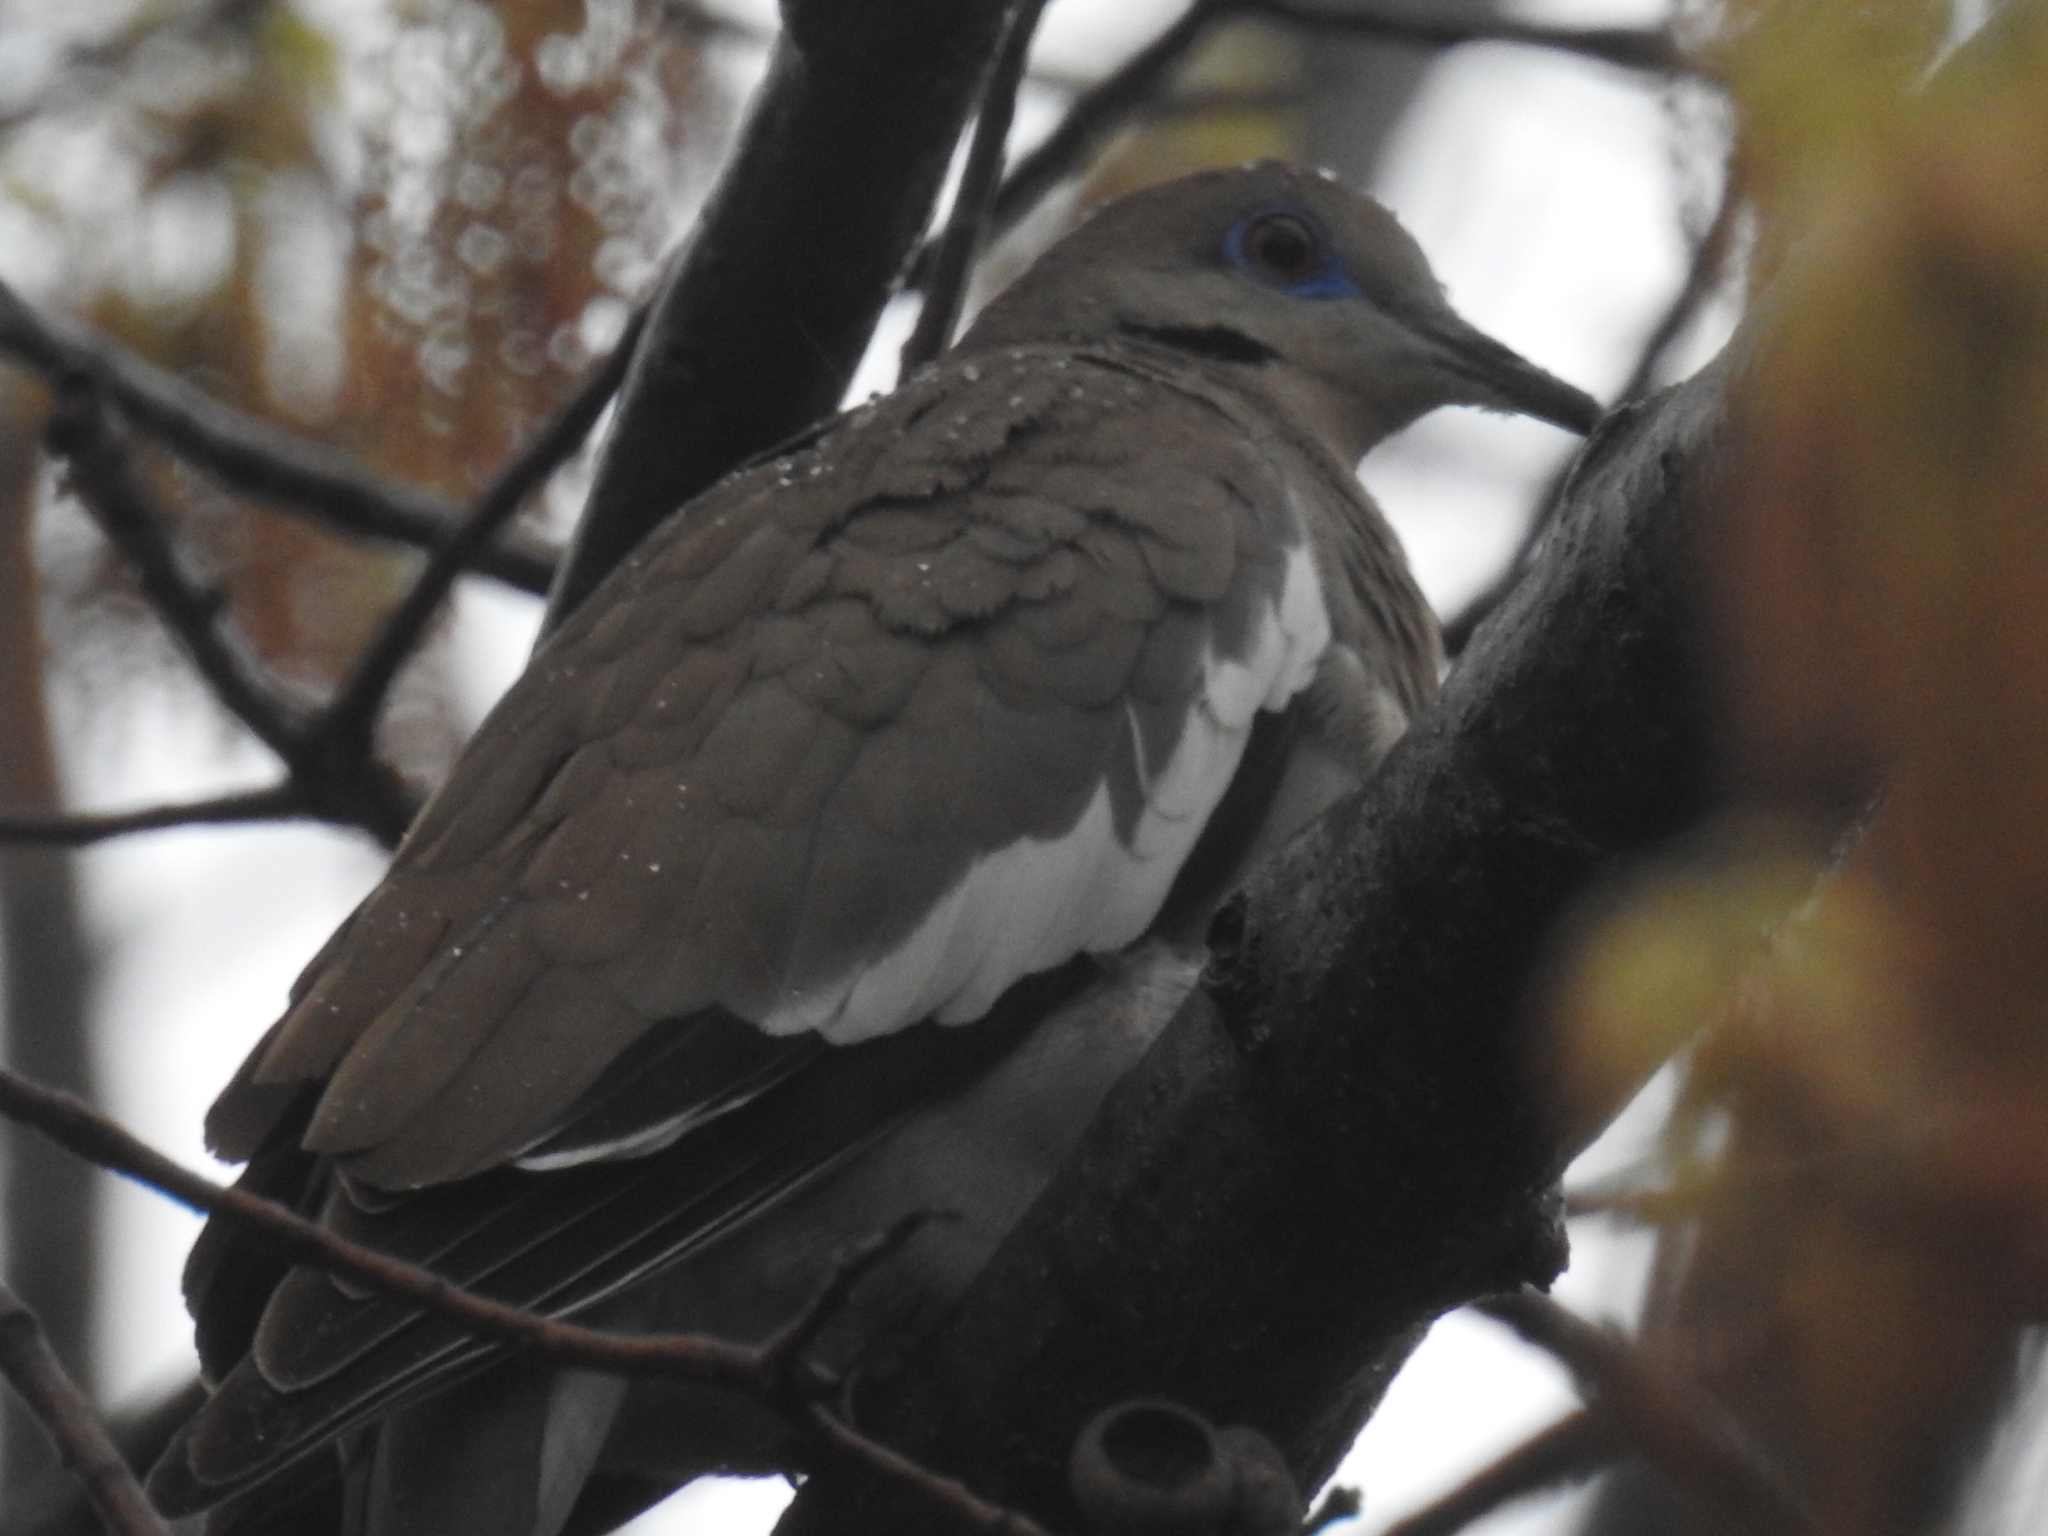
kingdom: Animalia
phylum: Chordata
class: Aves
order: Columbiformes
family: Columbidae
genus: Zenaida
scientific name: Zenaida asiatica
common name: White-winged dove
